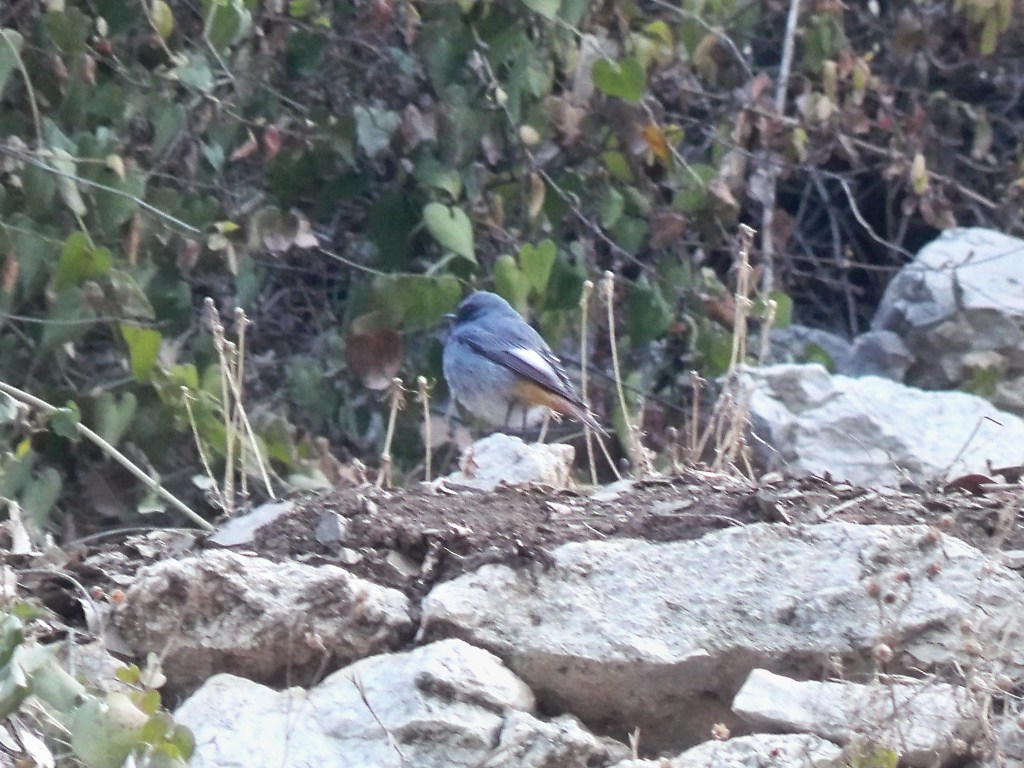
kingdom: Animalia
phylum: Chordata
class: Aves
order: Passeriformes
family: Muscicapidae
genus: Phoenicurus
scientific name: Phoenicurus ochruros
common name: Black redstart
